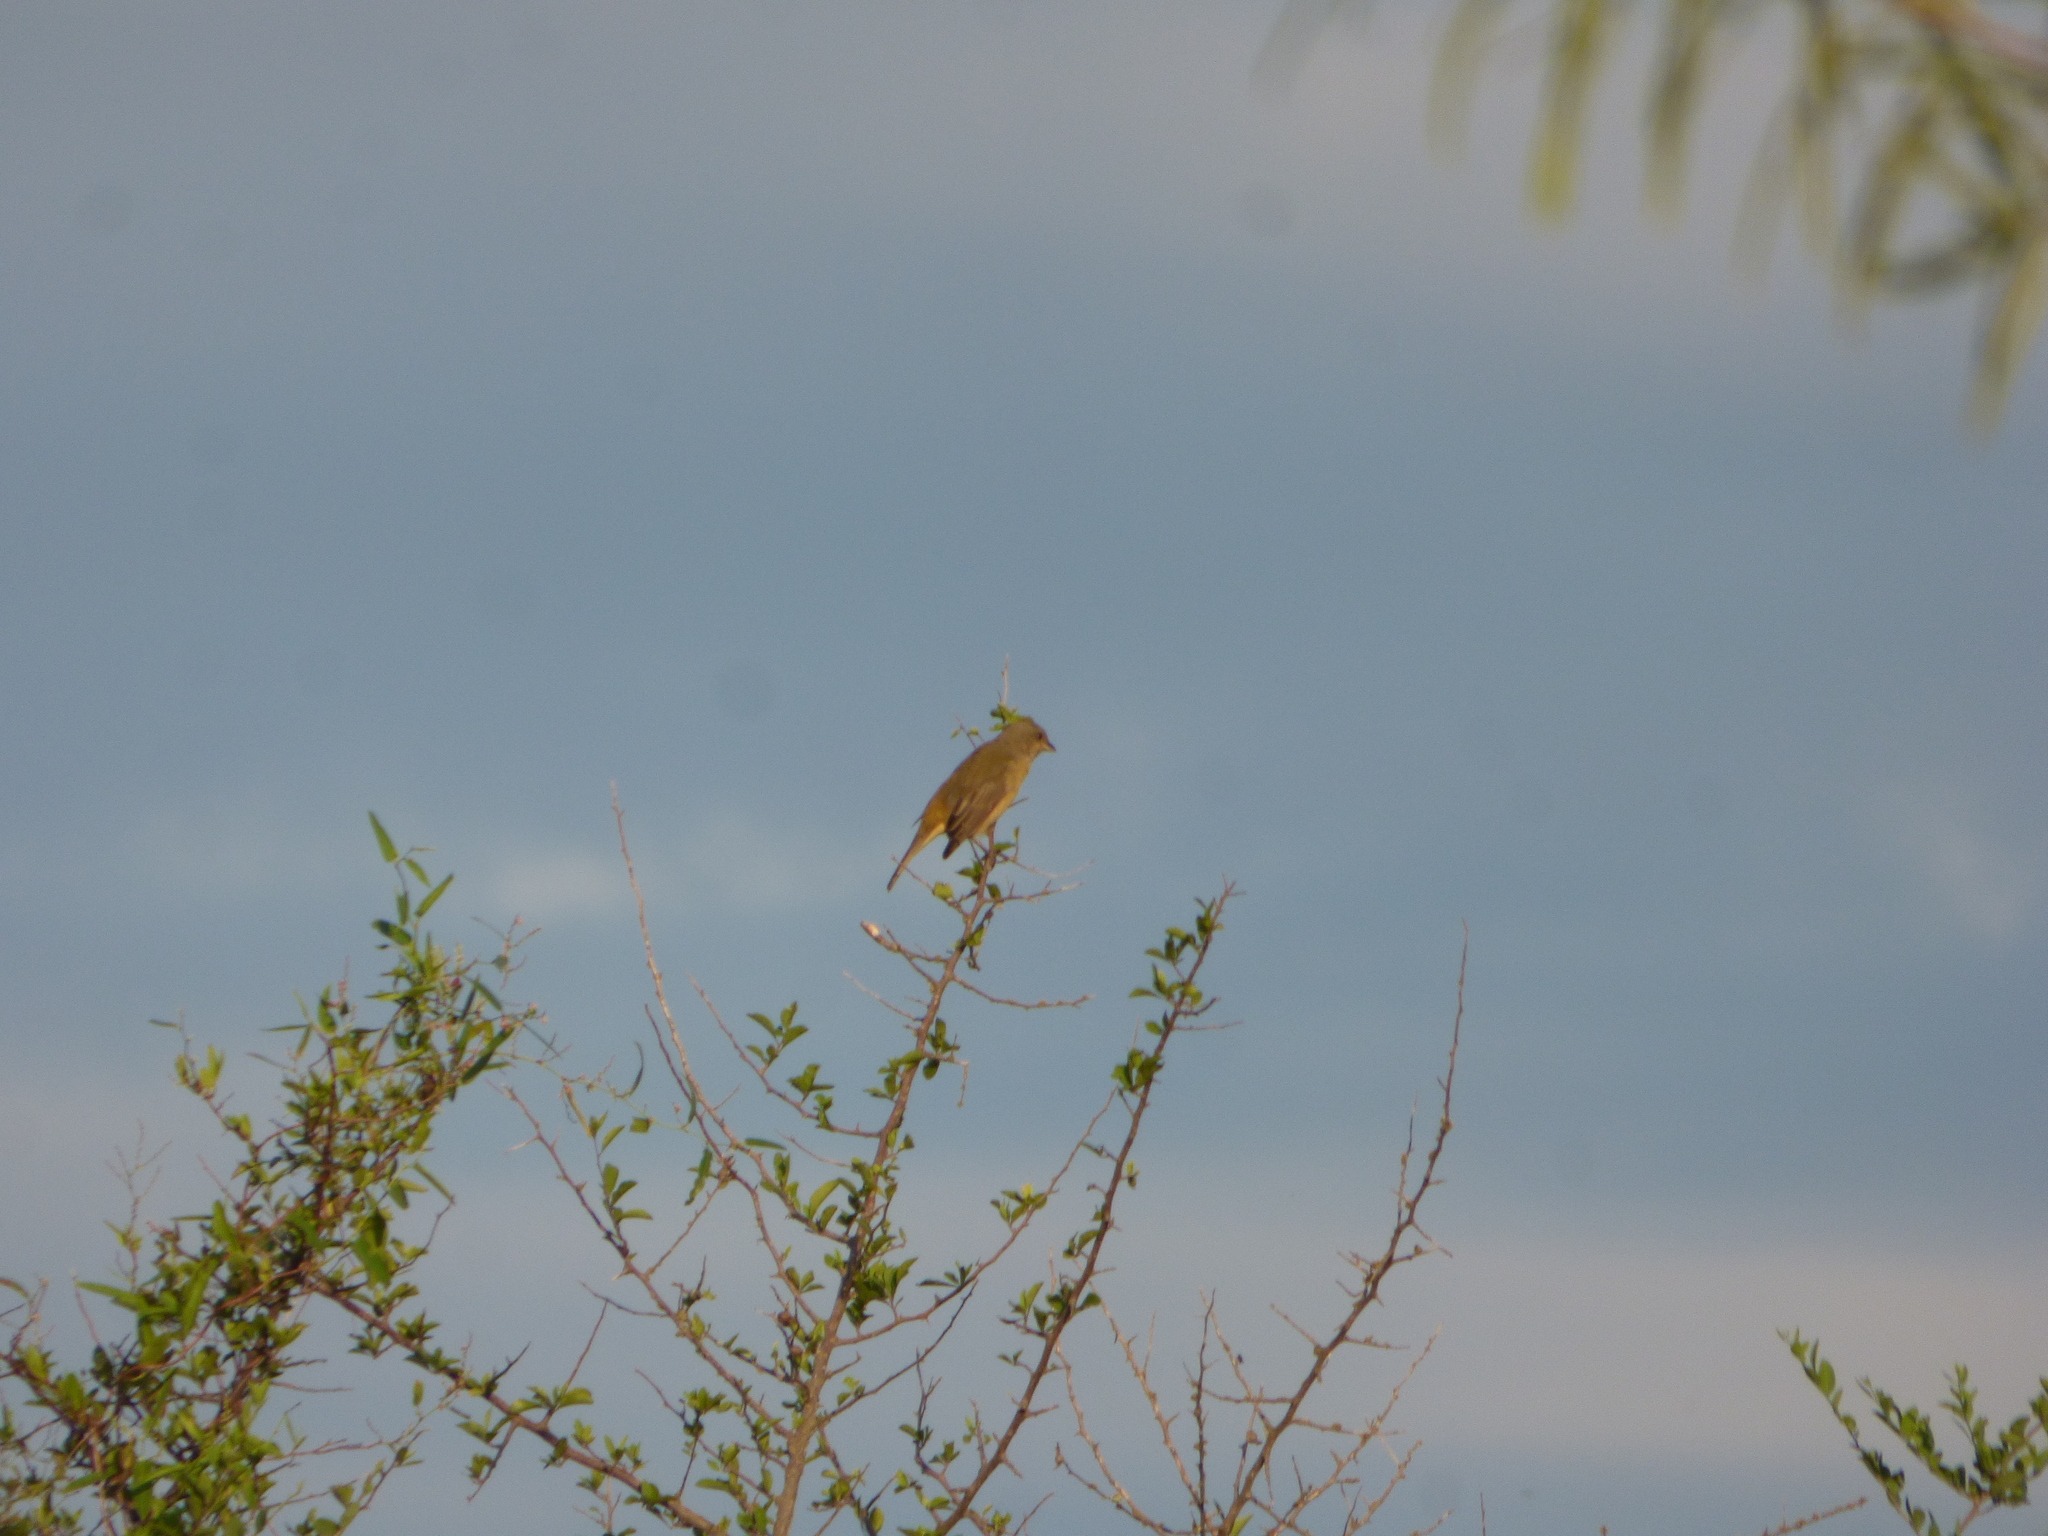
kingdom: Animalia
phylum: Chordata
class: Aves
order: Passeriformes
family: Thraupidae
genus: Rauenia
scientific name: Rauenia bonariensis
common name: Blue-and-yellow tanager
